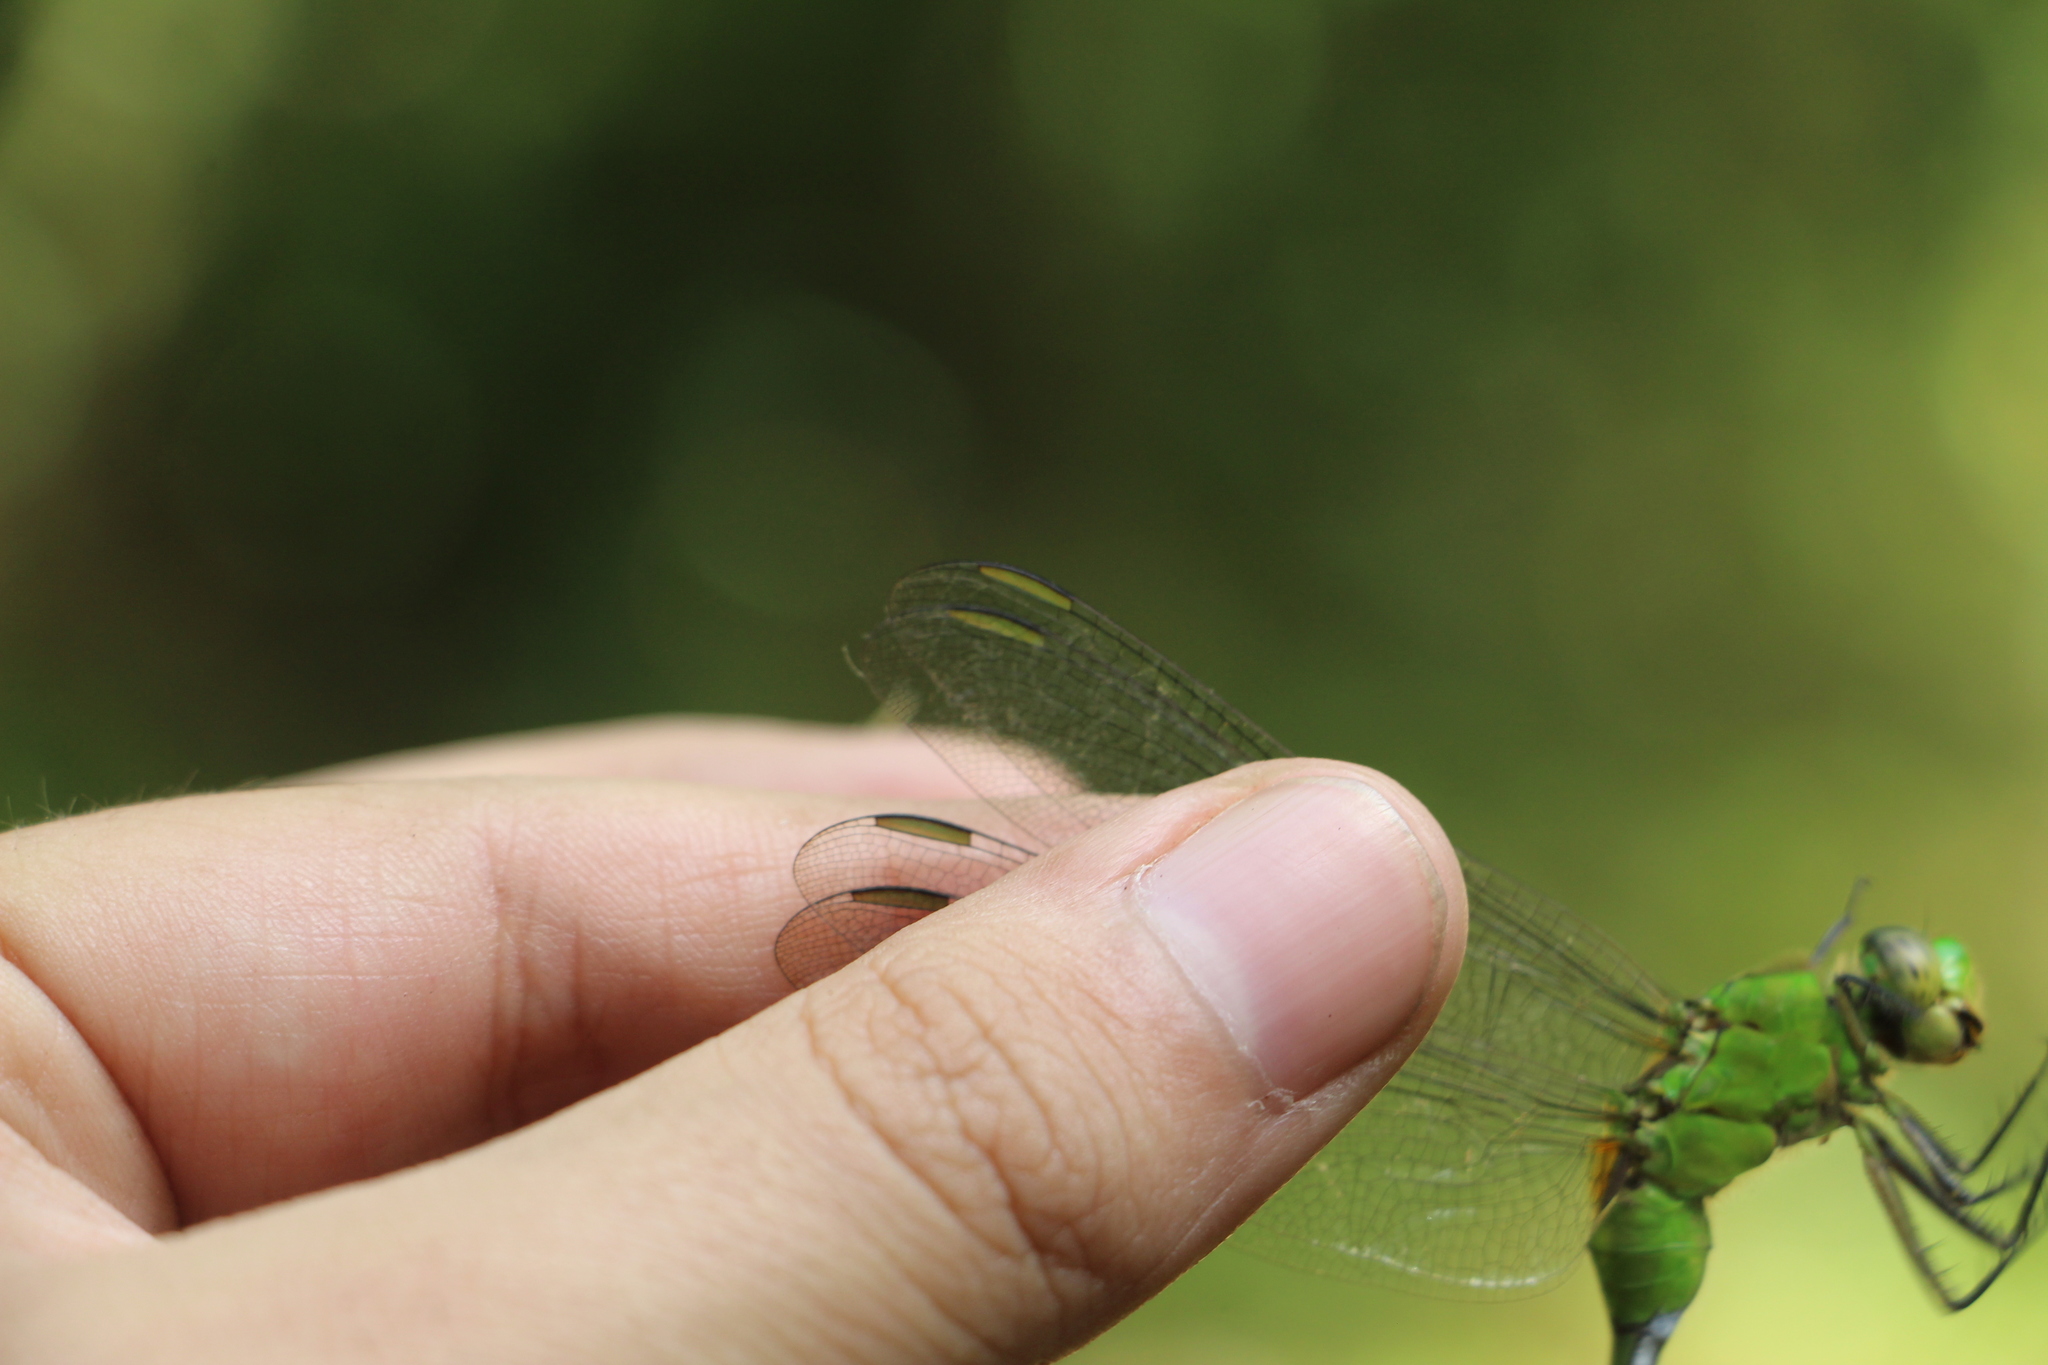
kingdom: Animalia
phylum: Arthropoda
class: Insecta
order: Odonata
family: Libellulidae
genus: Erythemis
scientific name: Erythemis vesiculosa
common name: Great pondhawk
